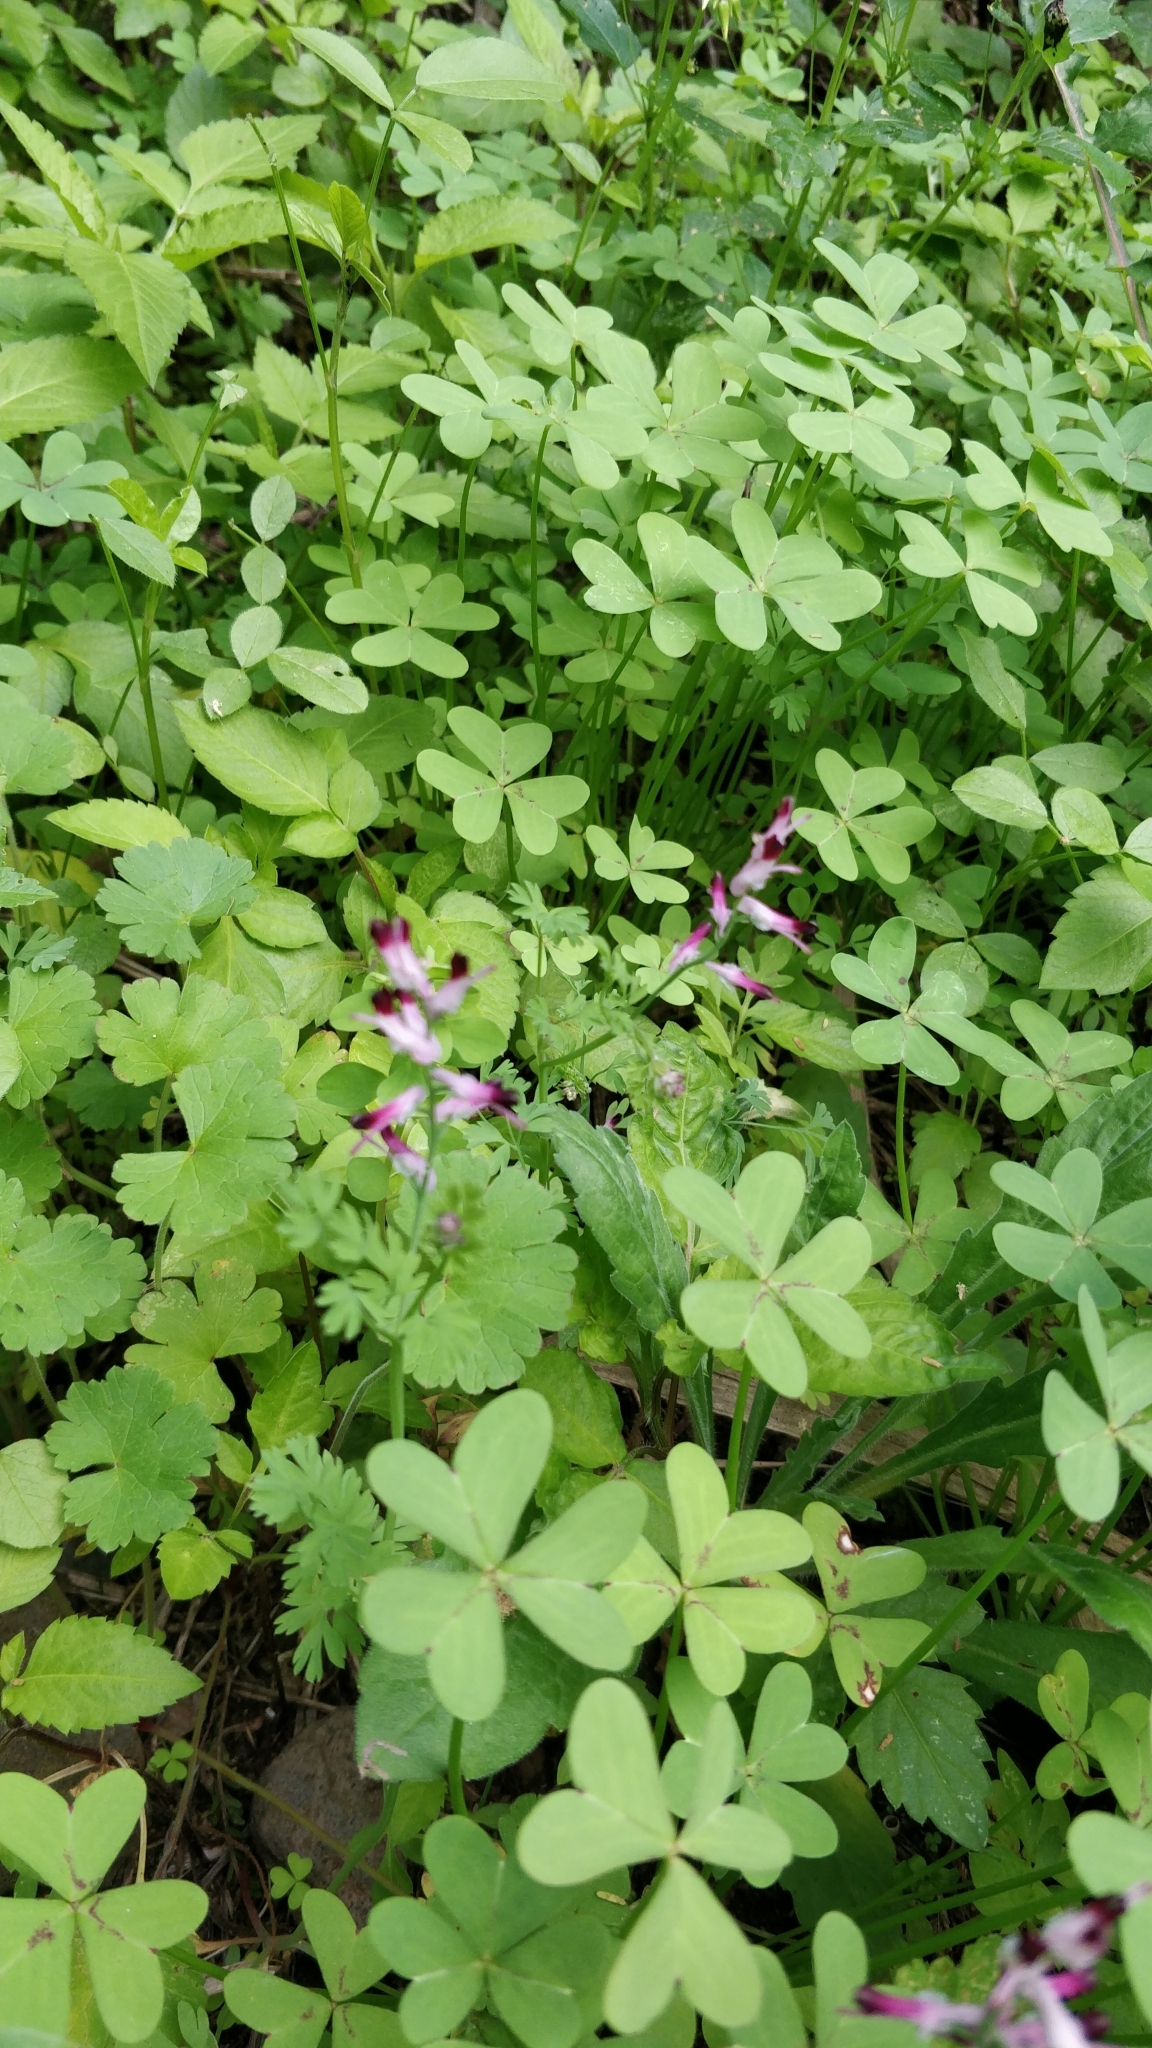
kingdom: Plantae
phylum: Tracheophyta
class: Magnoliopsida
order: Ranunculales
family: Papaveraceae
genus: Fumaria
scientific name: Fumaria muralis
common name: Common ramping-fumitory
